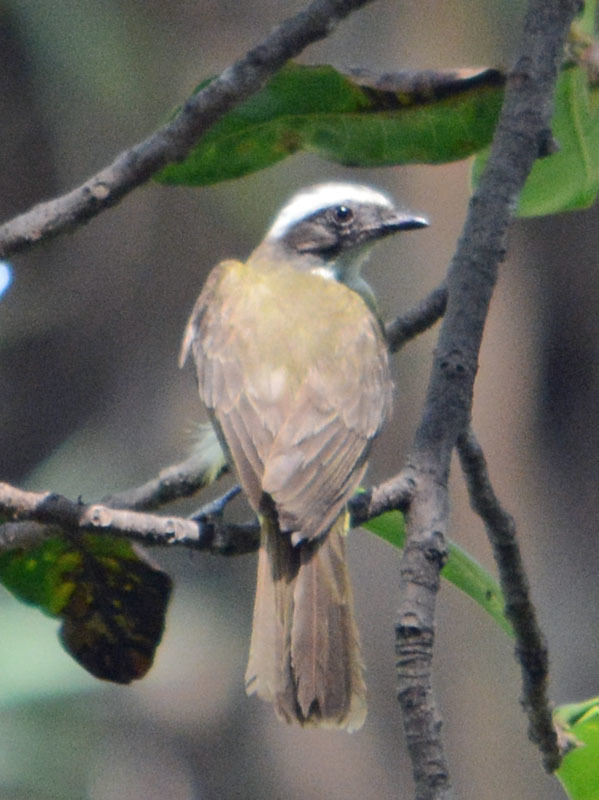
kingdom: Animalia
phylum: Chordata
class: Aves
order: Passeriformes
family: Tyrannidae
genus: Myiozetetes
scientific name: Myiozetetes similis
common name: Social flycatcher
